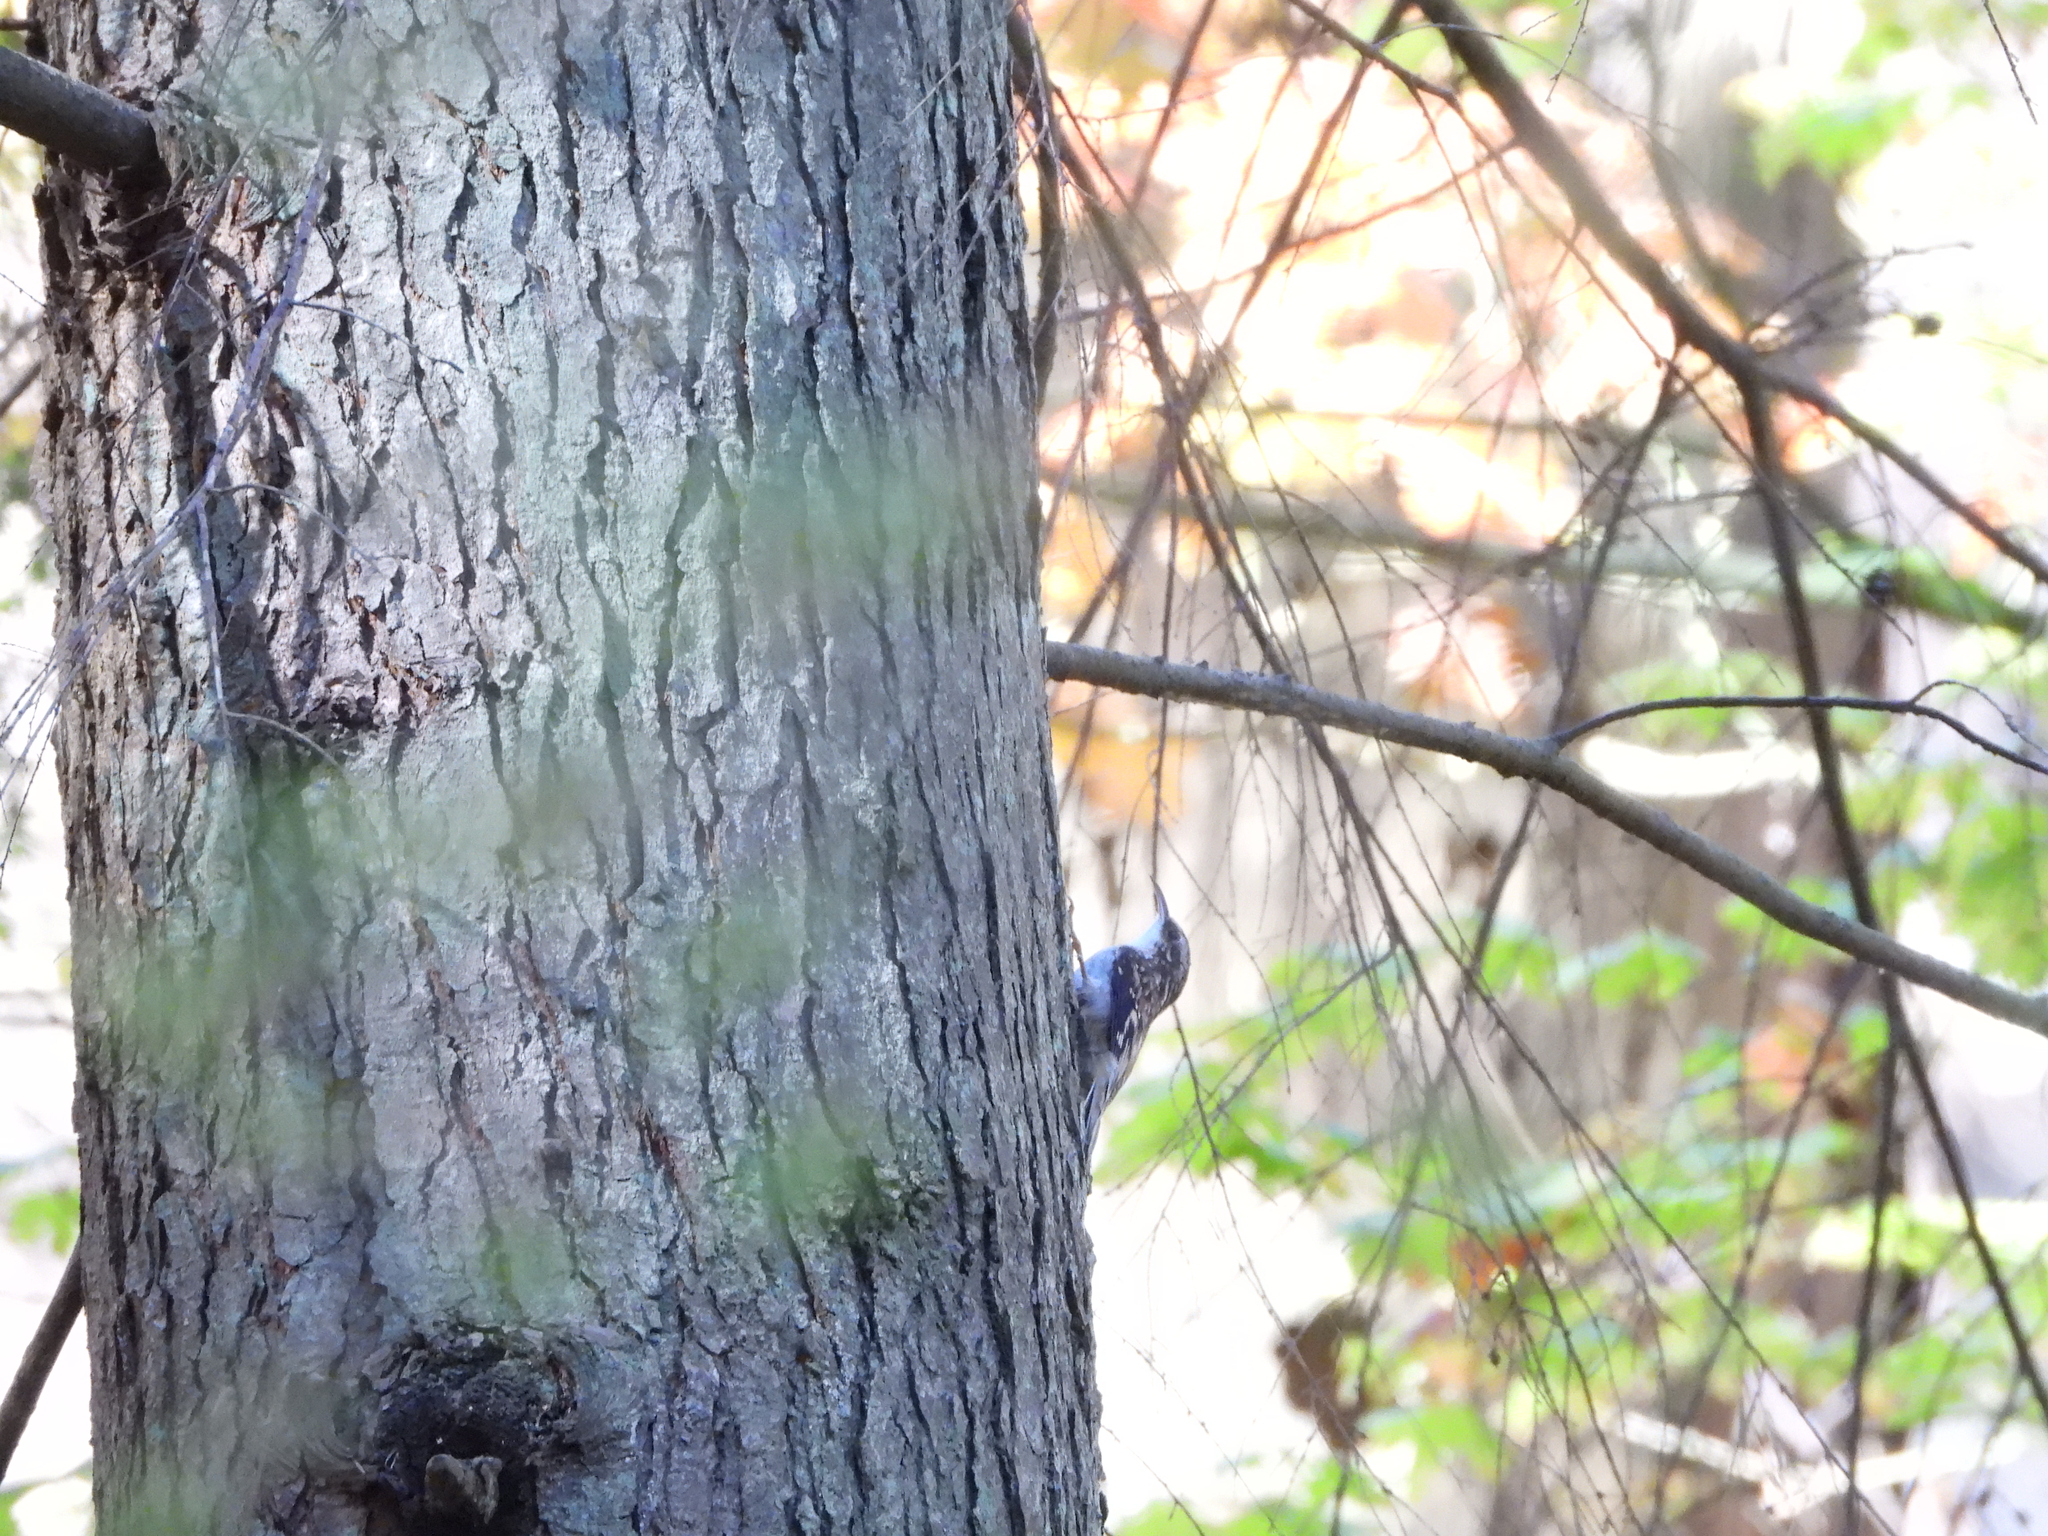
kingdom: Animalia
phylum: Chordata
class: Aves
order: Passeriformes
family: Certhiidae
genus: Certhia
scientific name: Certhia americana
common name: Brown creeper
